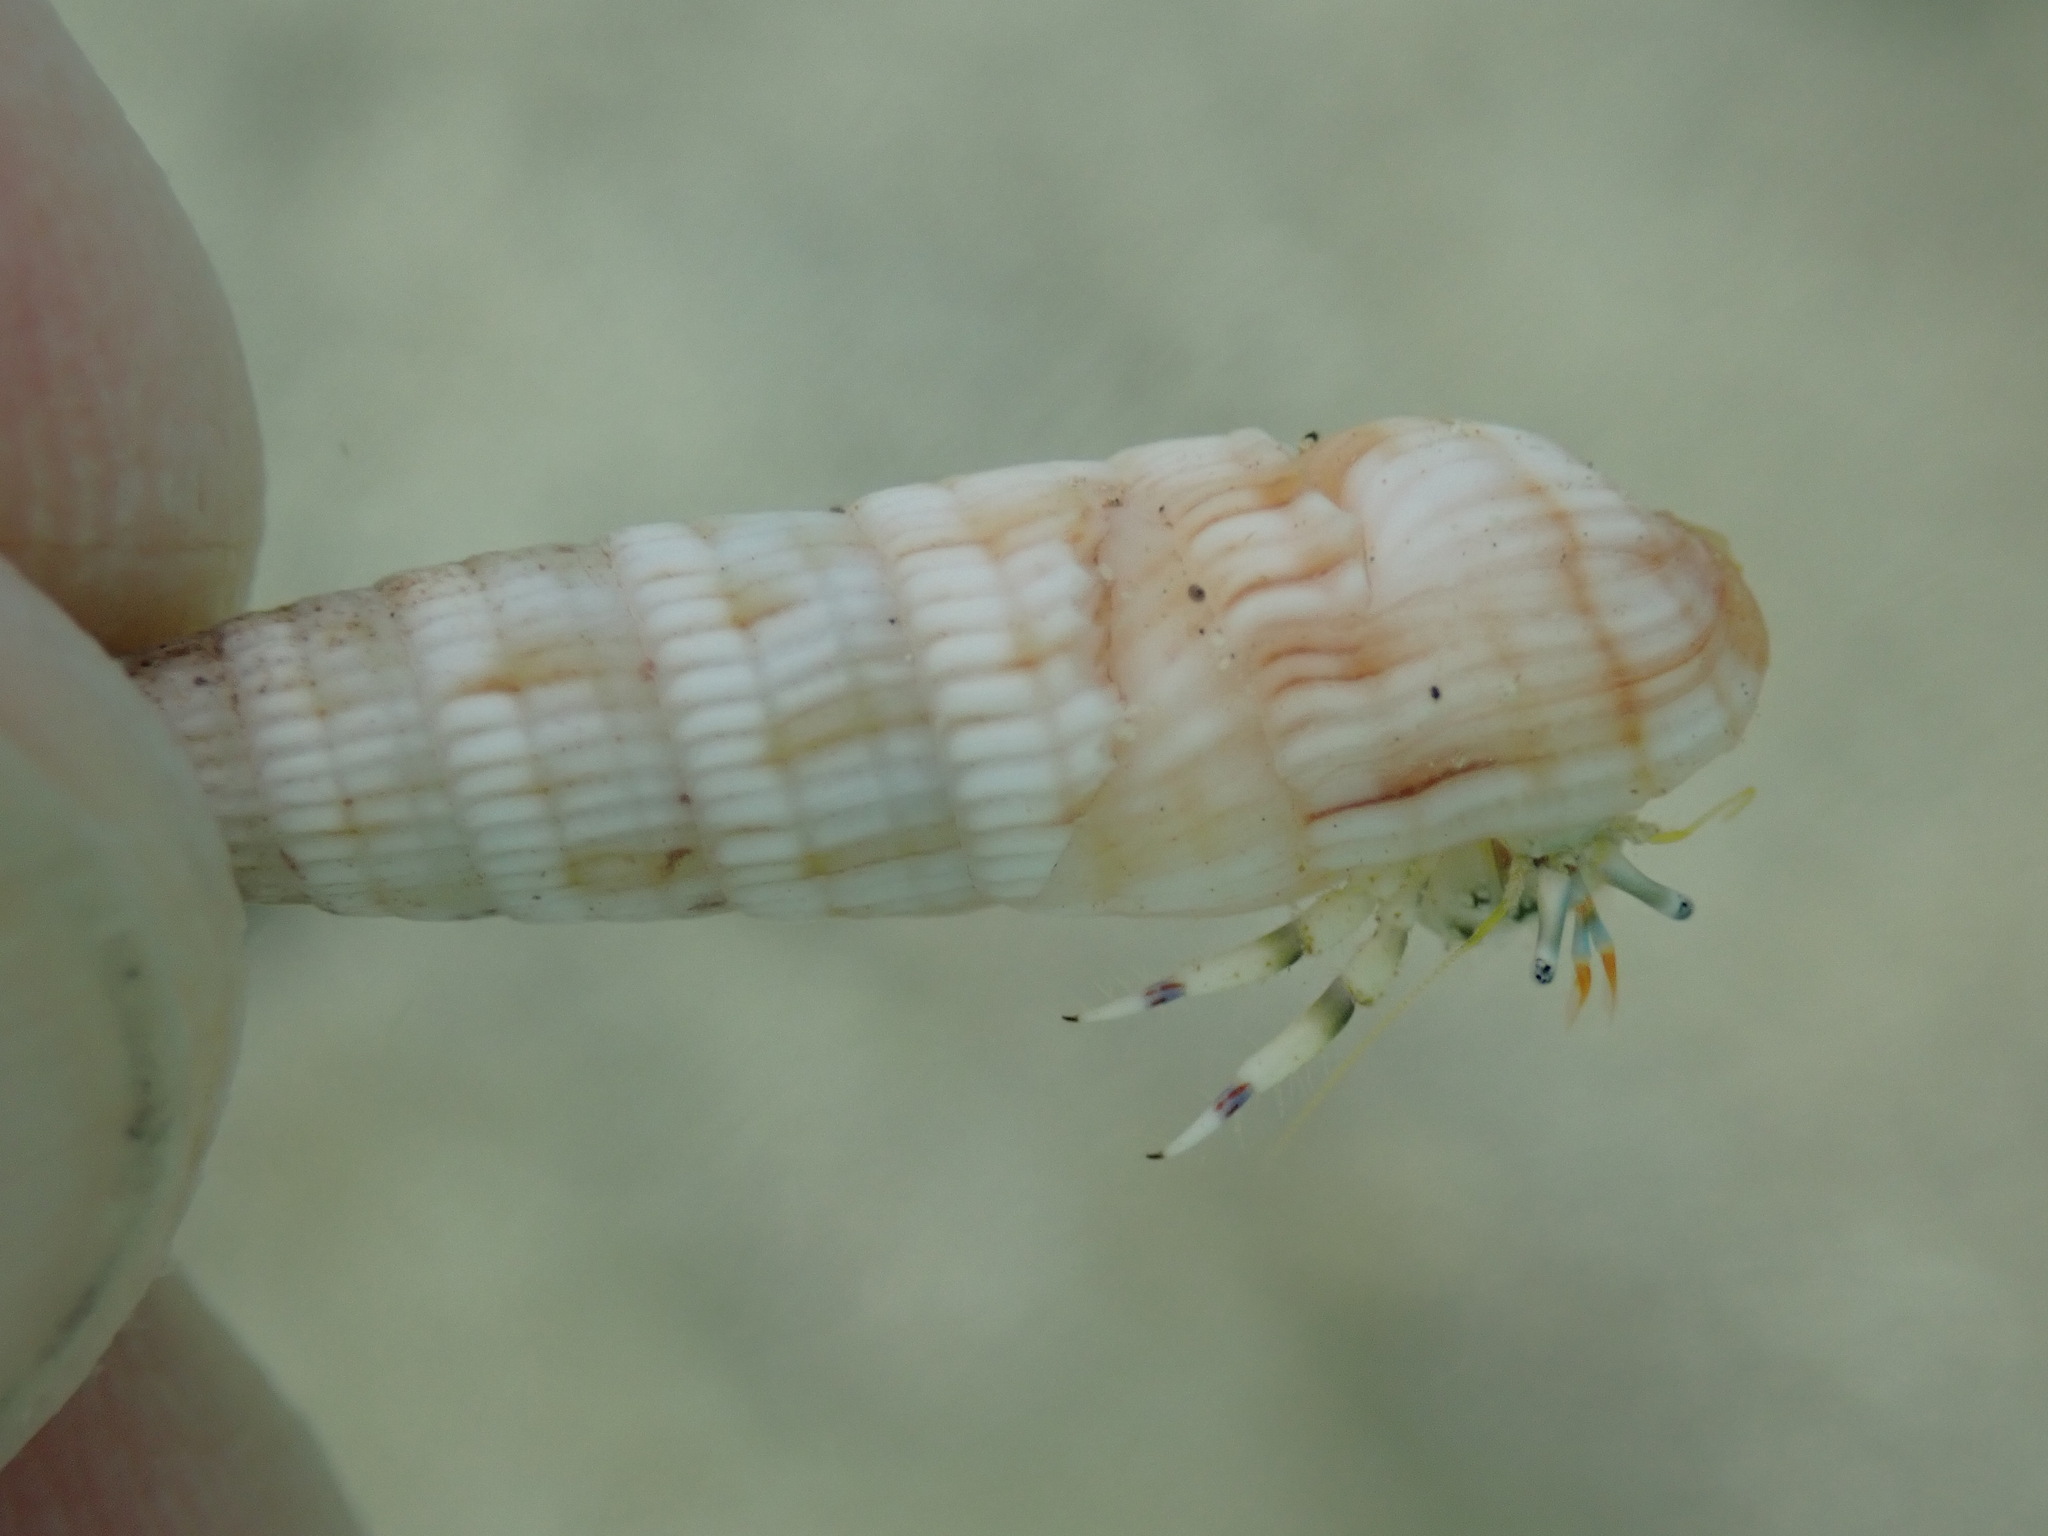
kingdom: Animalia
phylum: Mollusca
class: Gastropoda
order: Neogastropoda
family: Terebridae
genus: Myurella
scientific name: Myurella affinis
